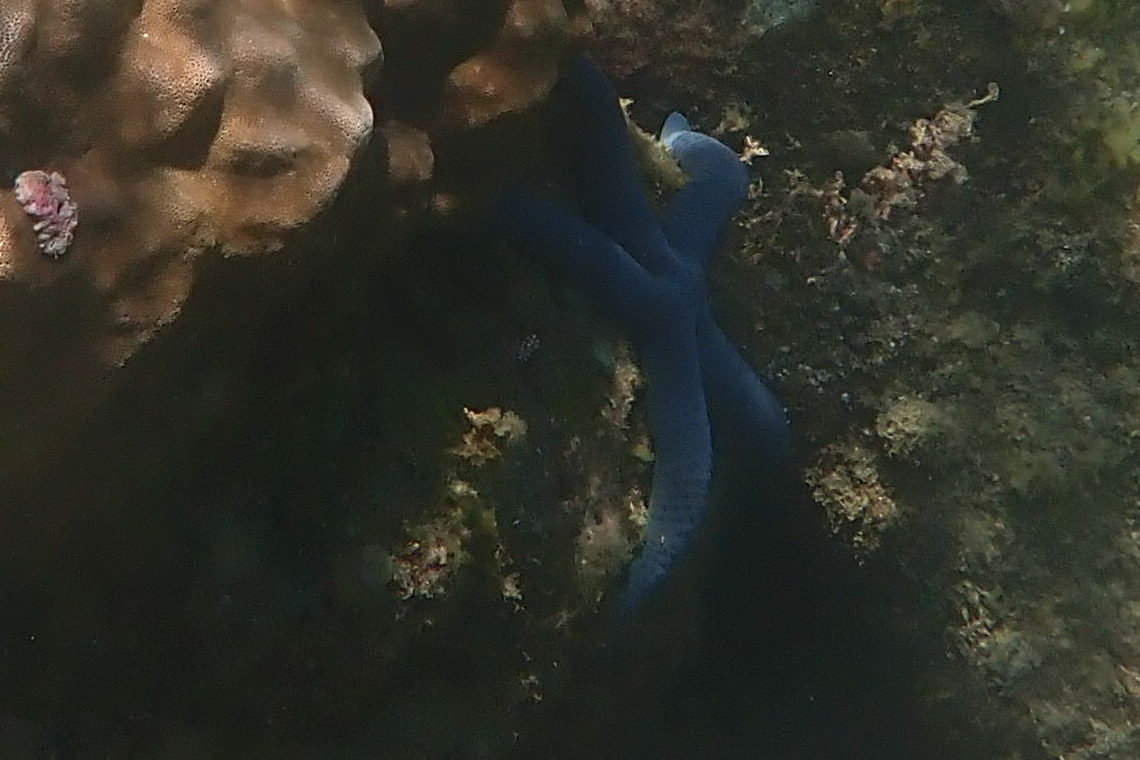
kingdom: Animalia
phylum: Echinodermata
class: Asteroidea
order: Valvatida
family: Ophidiasteridae
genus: Linckia
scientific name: Linckia laevigata
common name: Azure sea star
